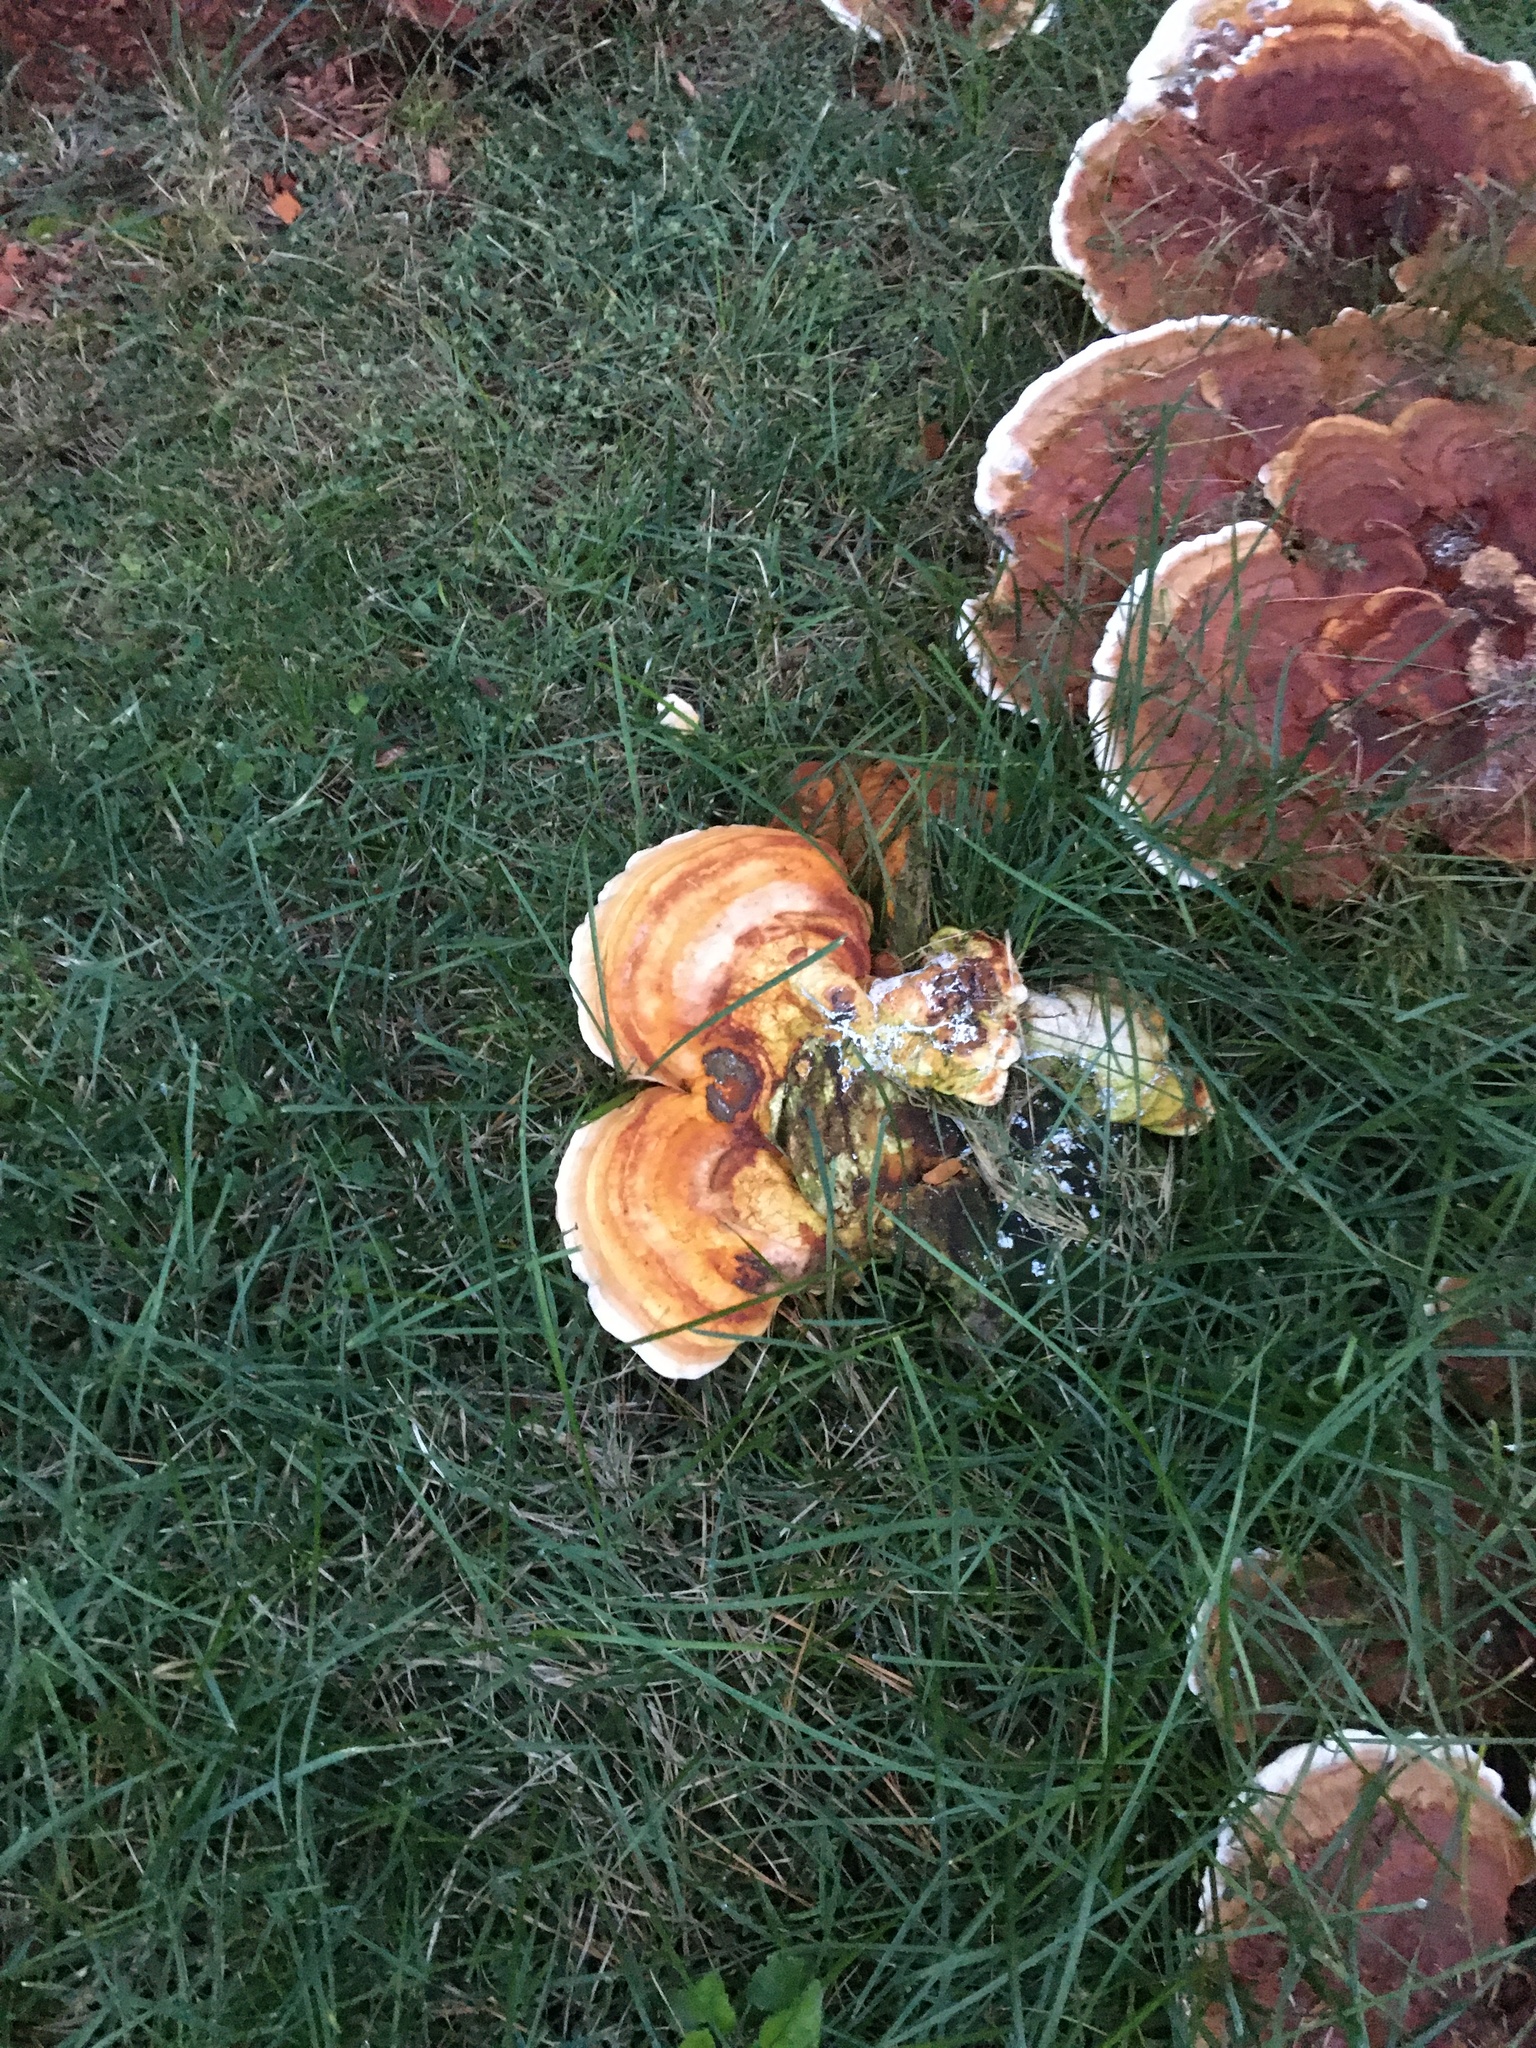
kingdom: Fungi
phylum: Basidiomycota
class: Agaricomycetes
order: Polyporales
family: Polyporaceae
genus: Ganoderma
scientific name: Ganoderma resinaceum
